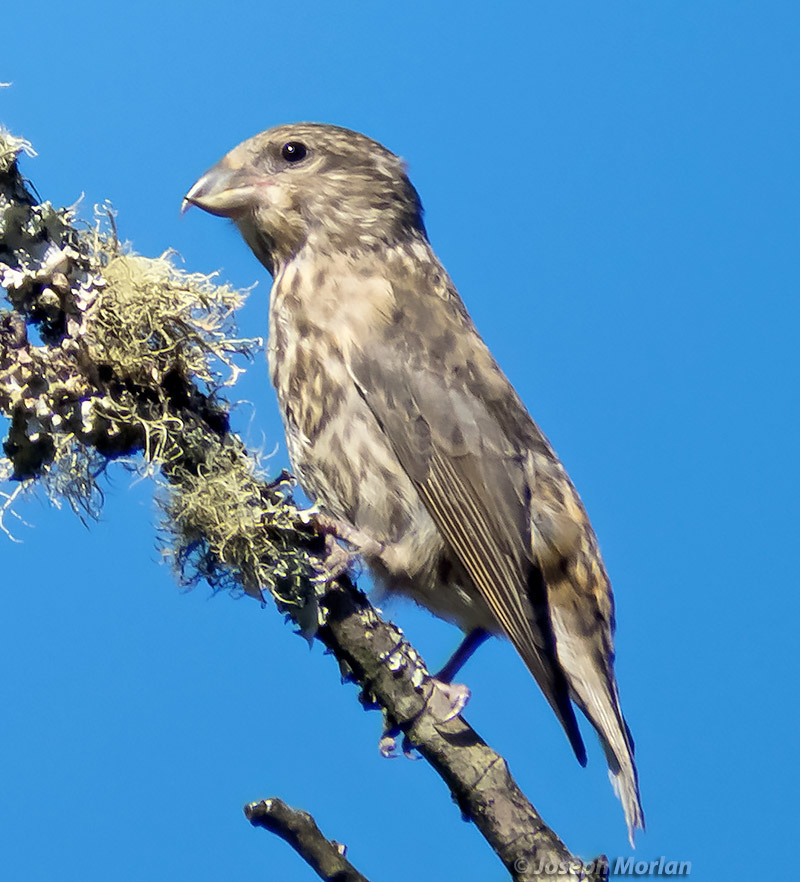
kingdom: Animalia
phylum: Chordata
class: Aves
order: Passeriformes
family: Fringillidae
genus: Loxia
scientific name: Loxia curvirostra
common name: Red crossbill
